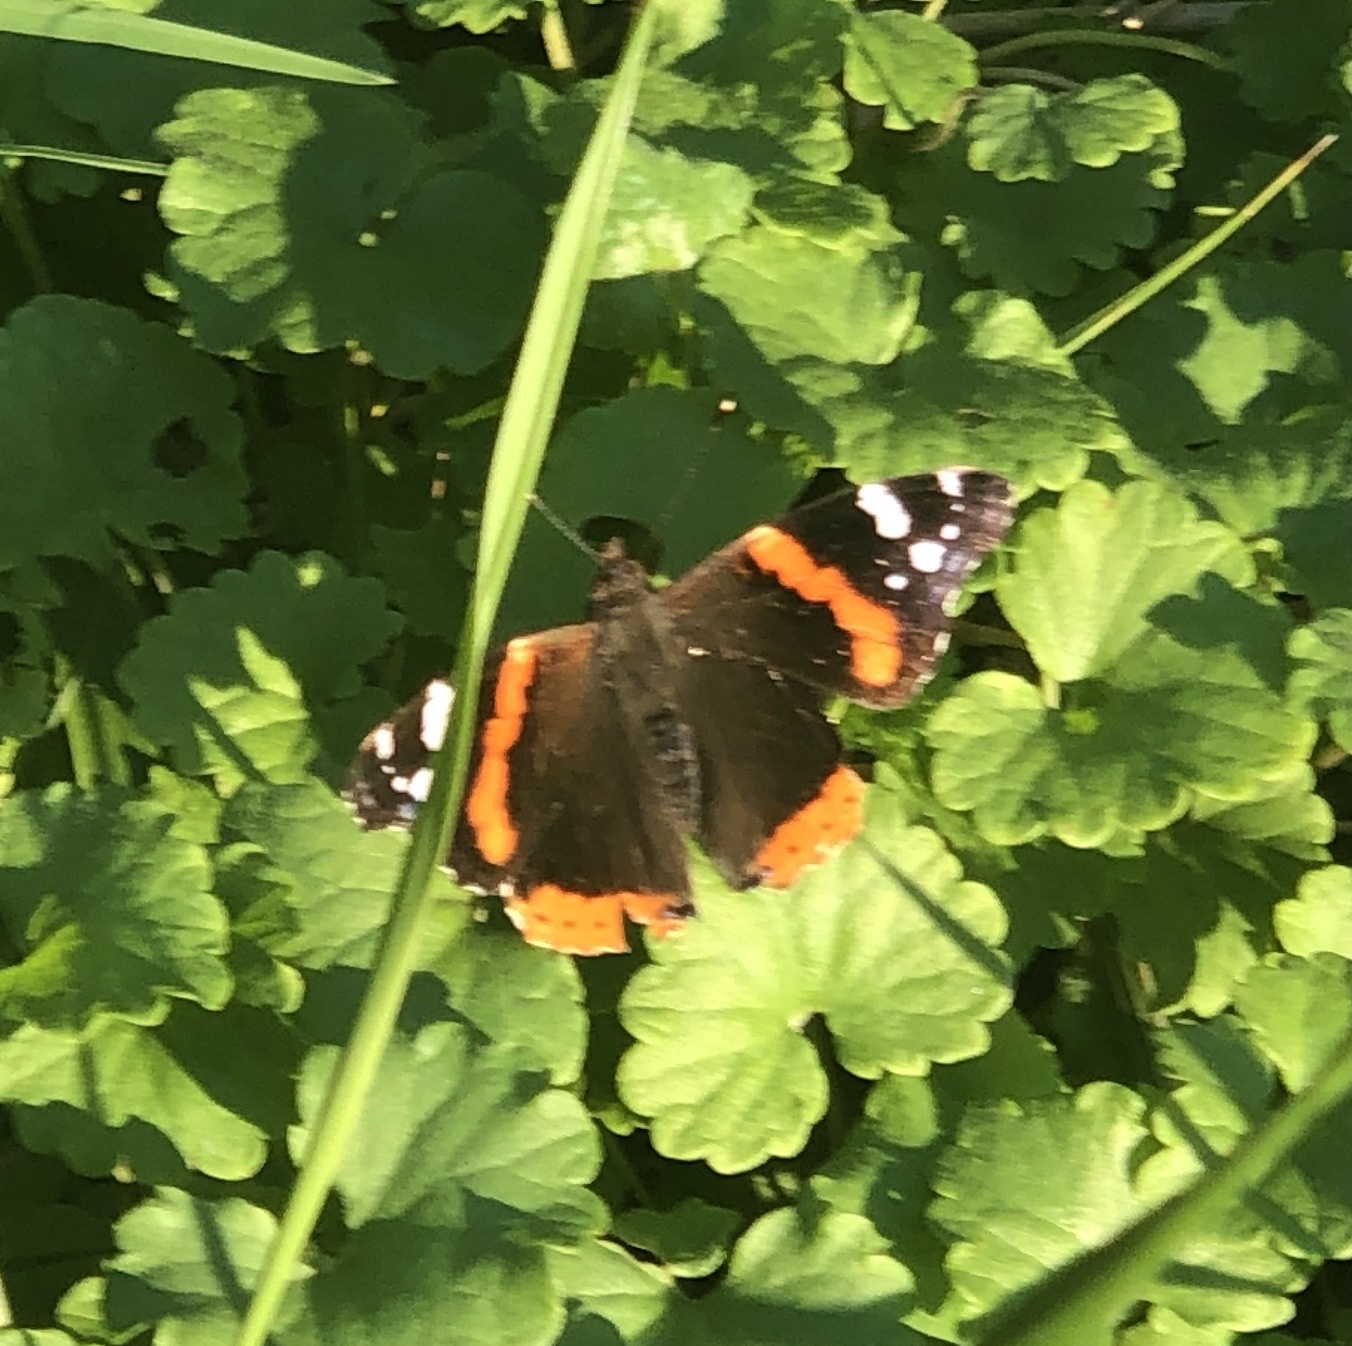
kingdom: Animalia
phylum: Arthropoda
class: Insecta
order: Lepidoptera
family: Nymphalidae
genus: Vanessa
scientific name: Vanessa atalanta
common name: Red admiral
